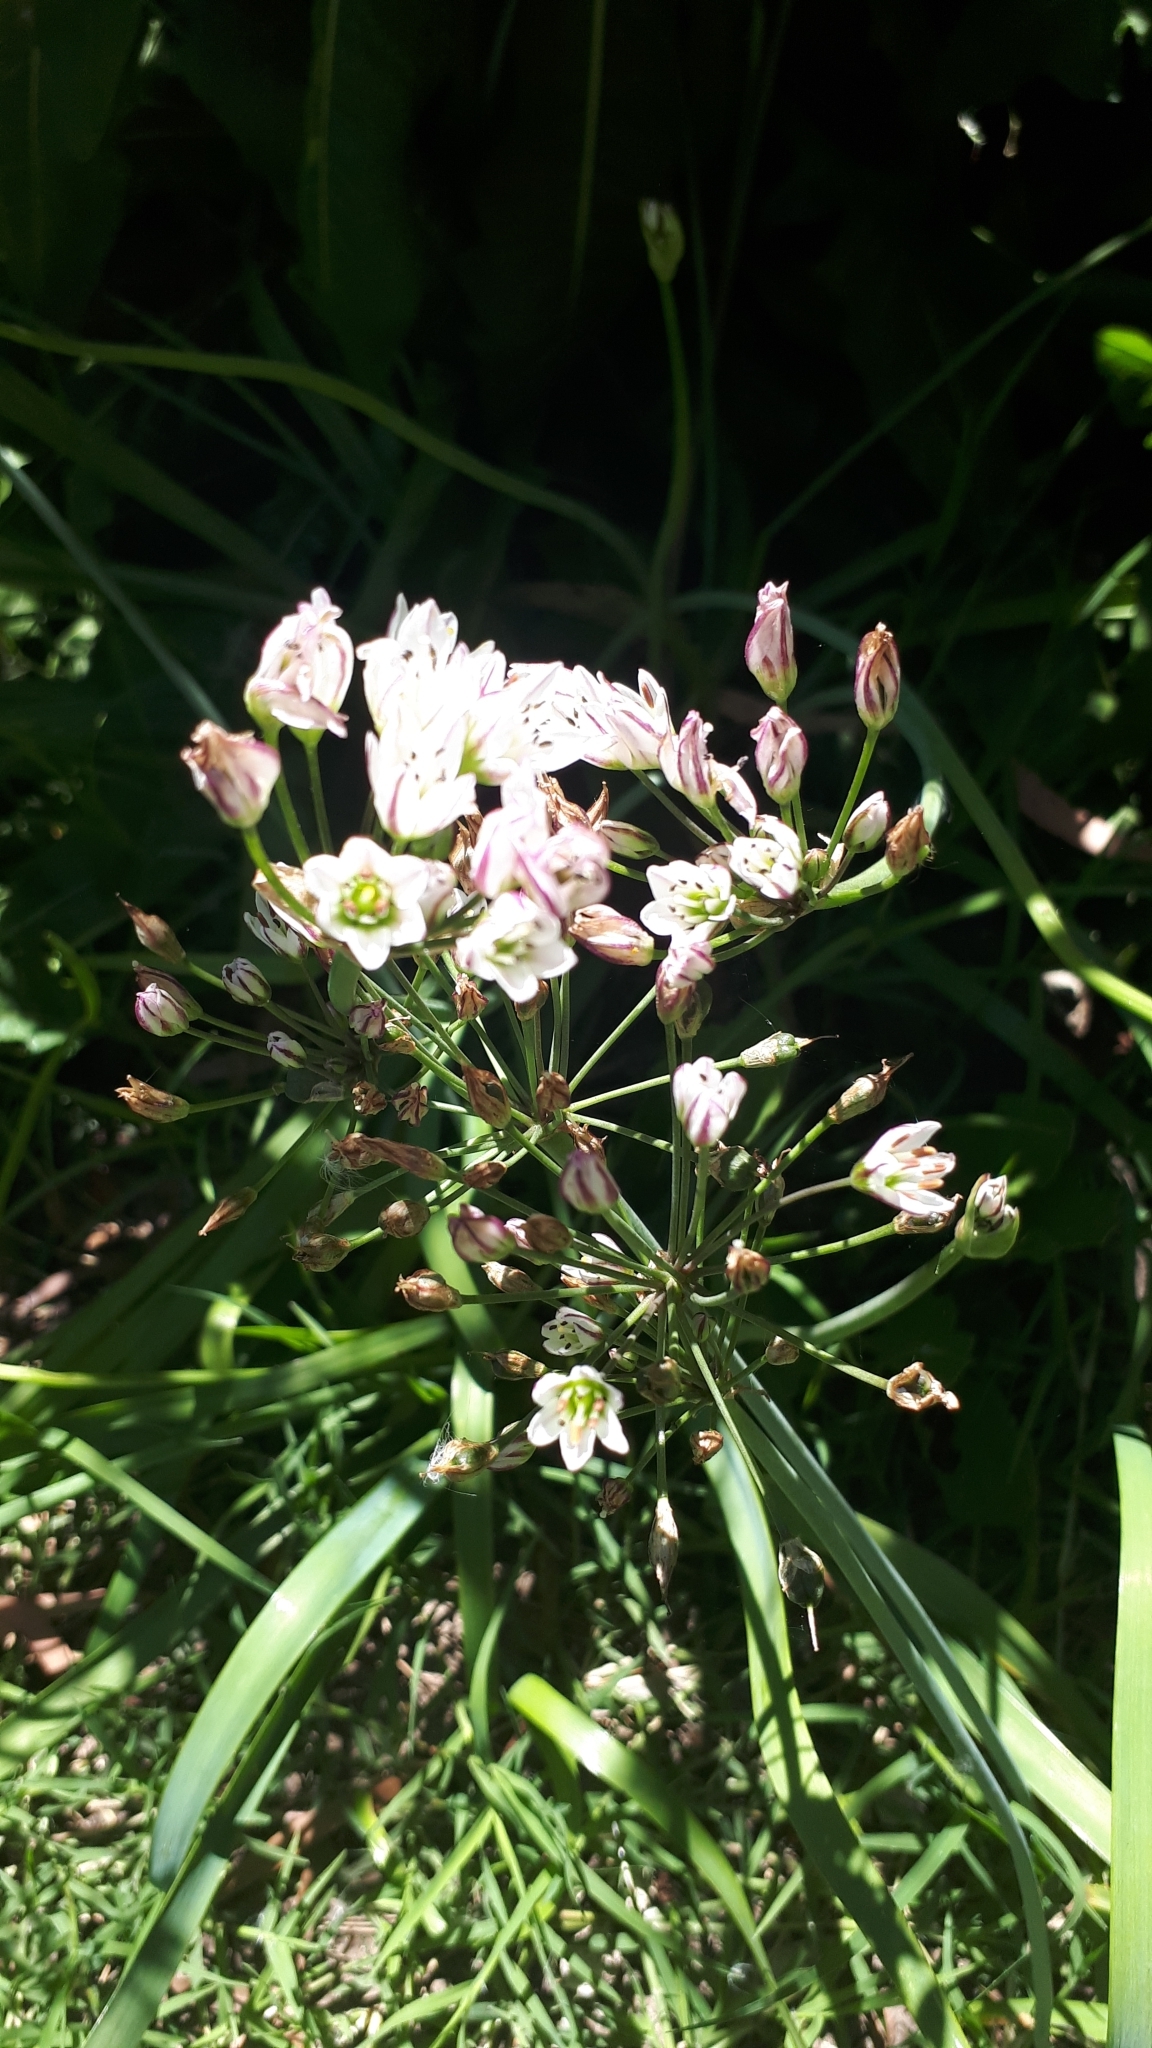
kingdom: Plantae
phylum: Tracheophyta
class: Liliopsida
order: Asparagales
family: Amaryllidaceae
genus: Nothoscordum
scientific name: Nothoscordum gracile
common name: Slender false garlic
